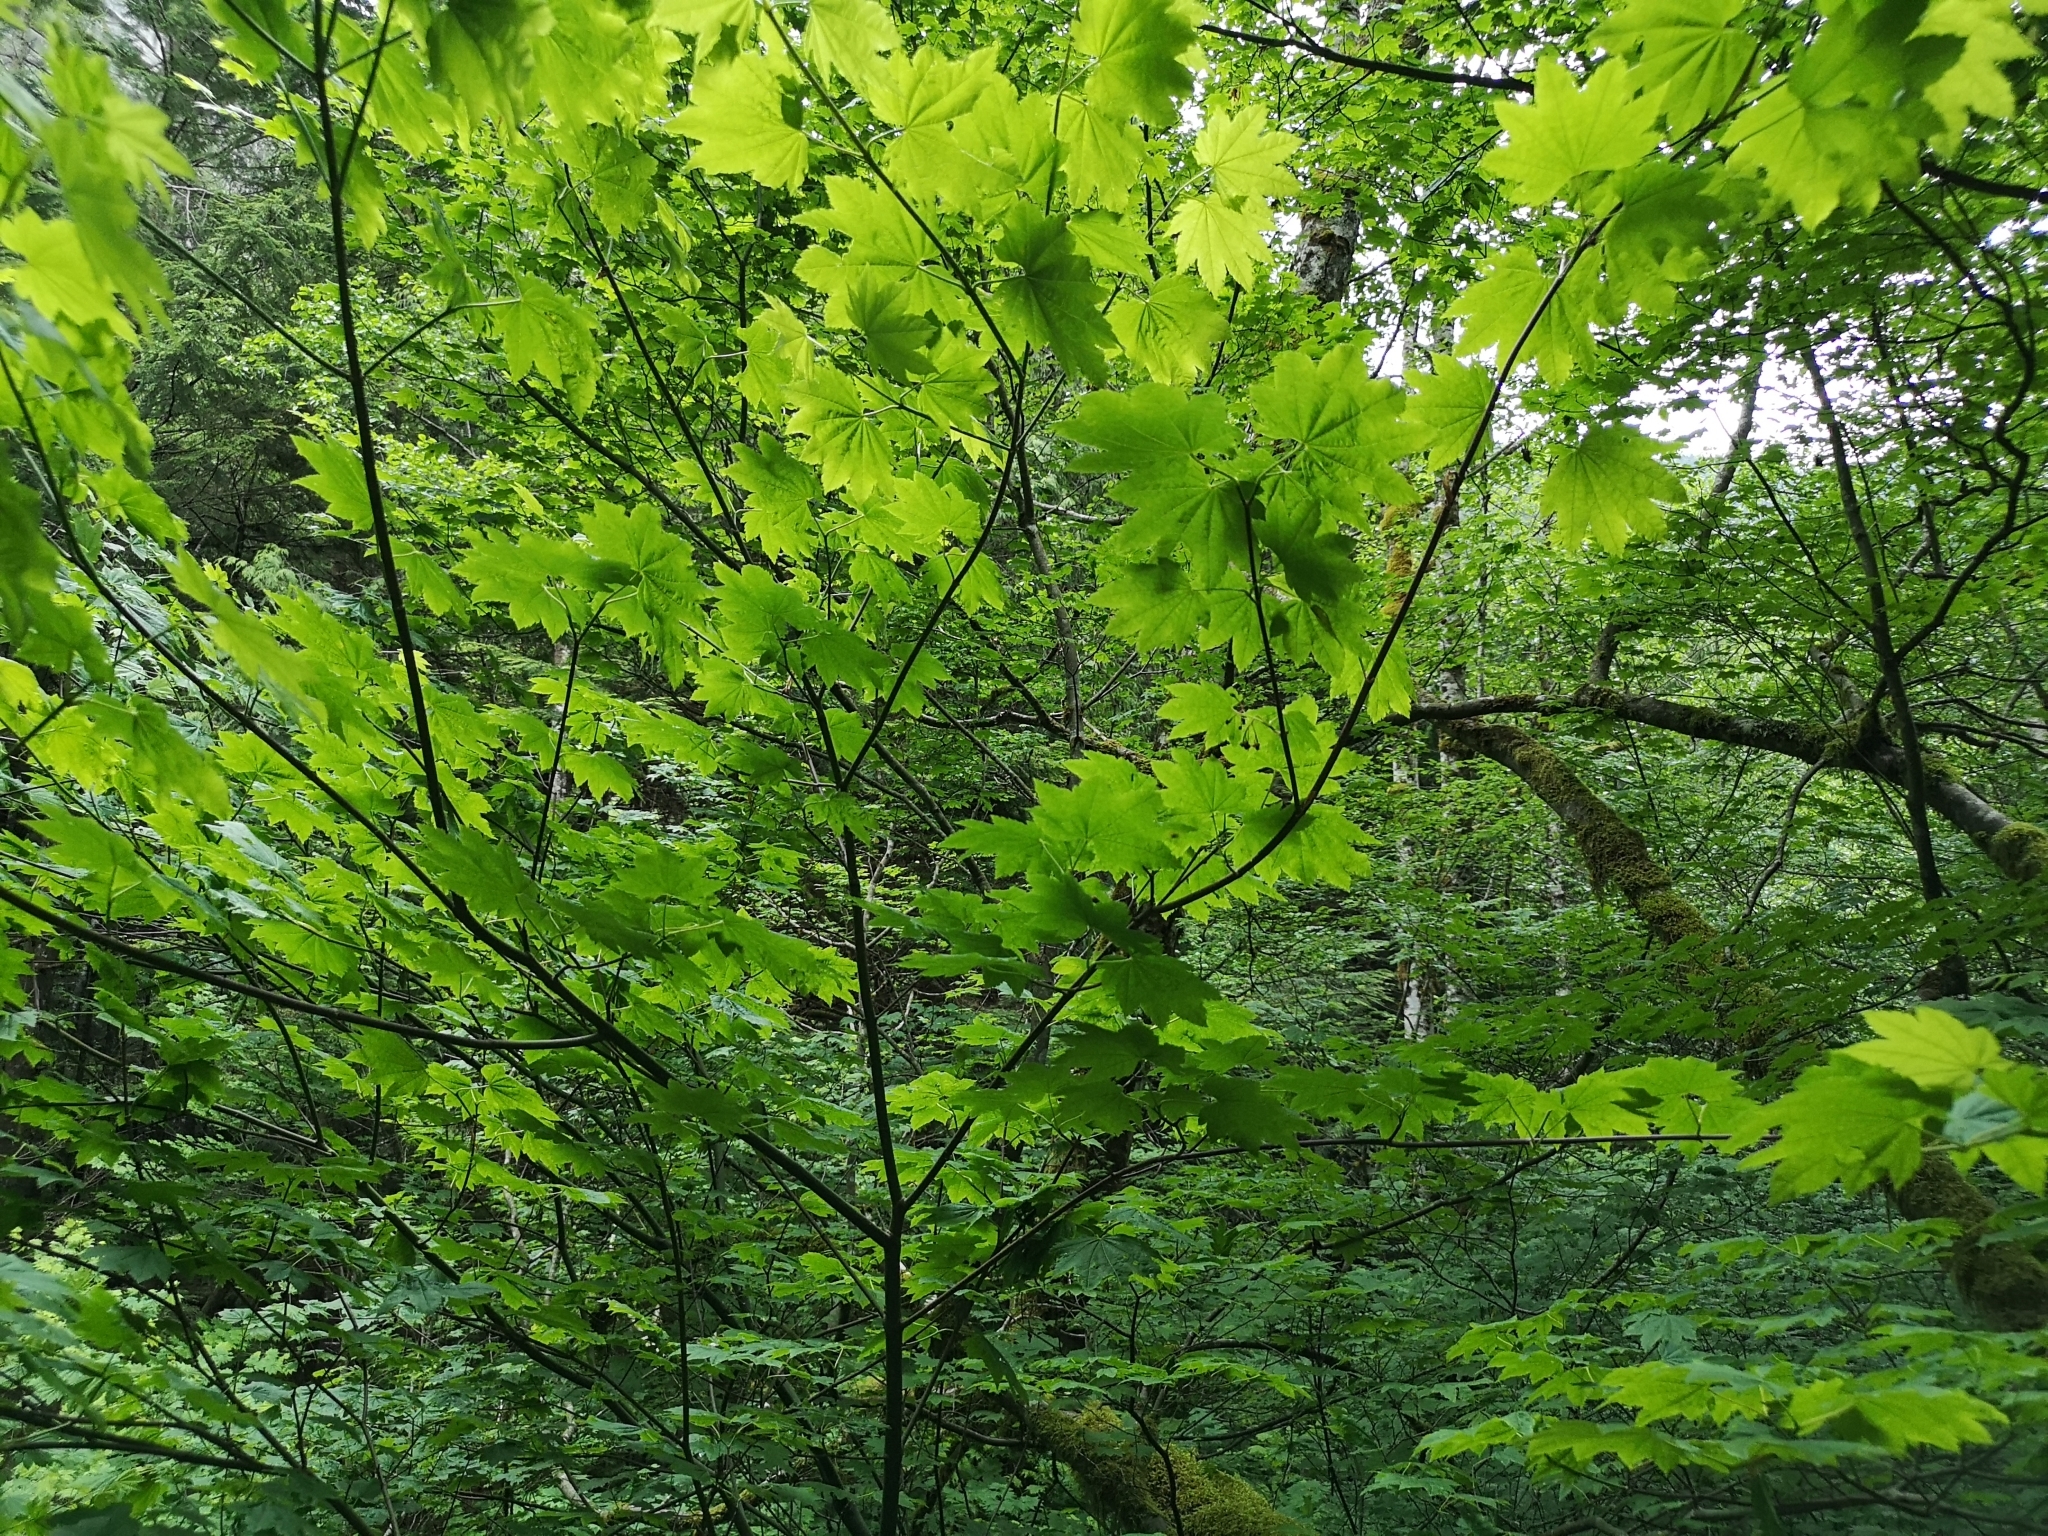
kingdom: Plantae
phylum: Tracheophyta
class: Magnoliopsida
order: Sapindales
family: Sapindaceae
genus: Acer
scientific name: Acer circinatum
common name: Vine maple
